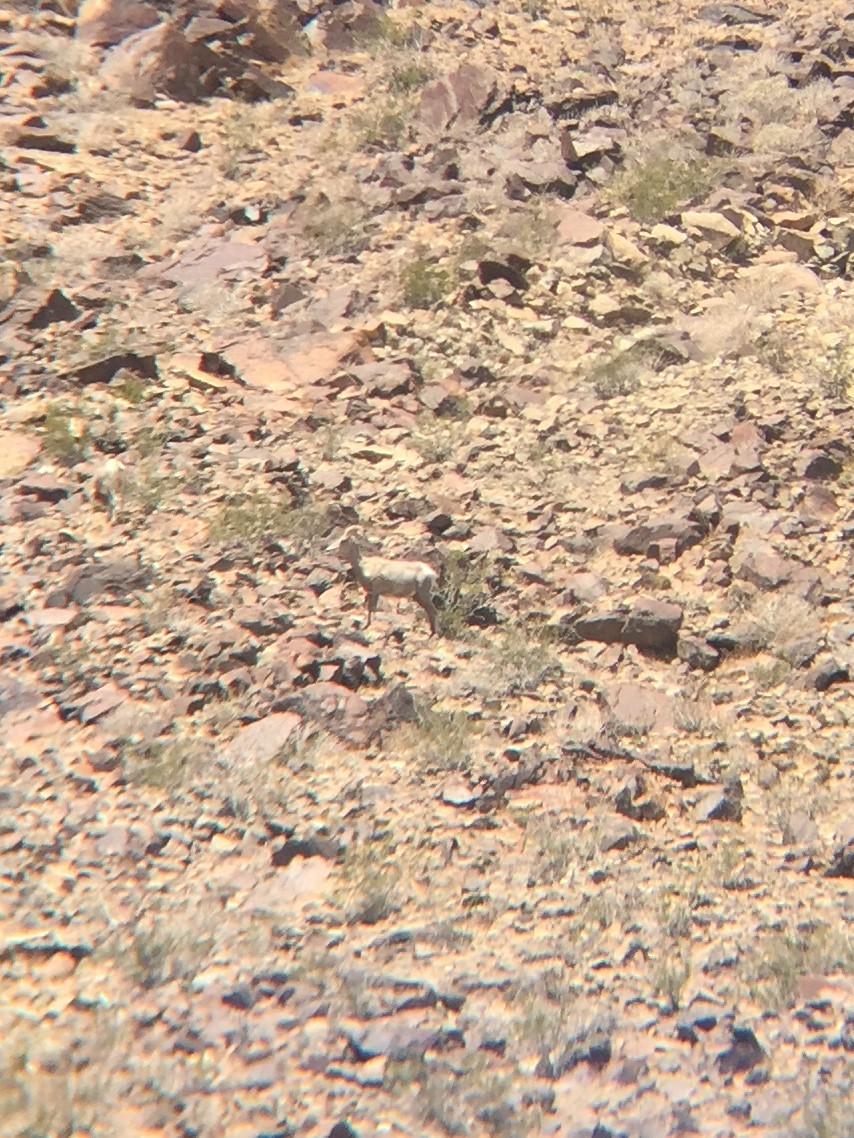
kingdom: Animalia
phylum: Chordata
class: Mammalia
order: Artiodactyla
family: Bovidae
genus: Ovis
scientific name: Ovis canadensis
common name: Bighorn sheep
